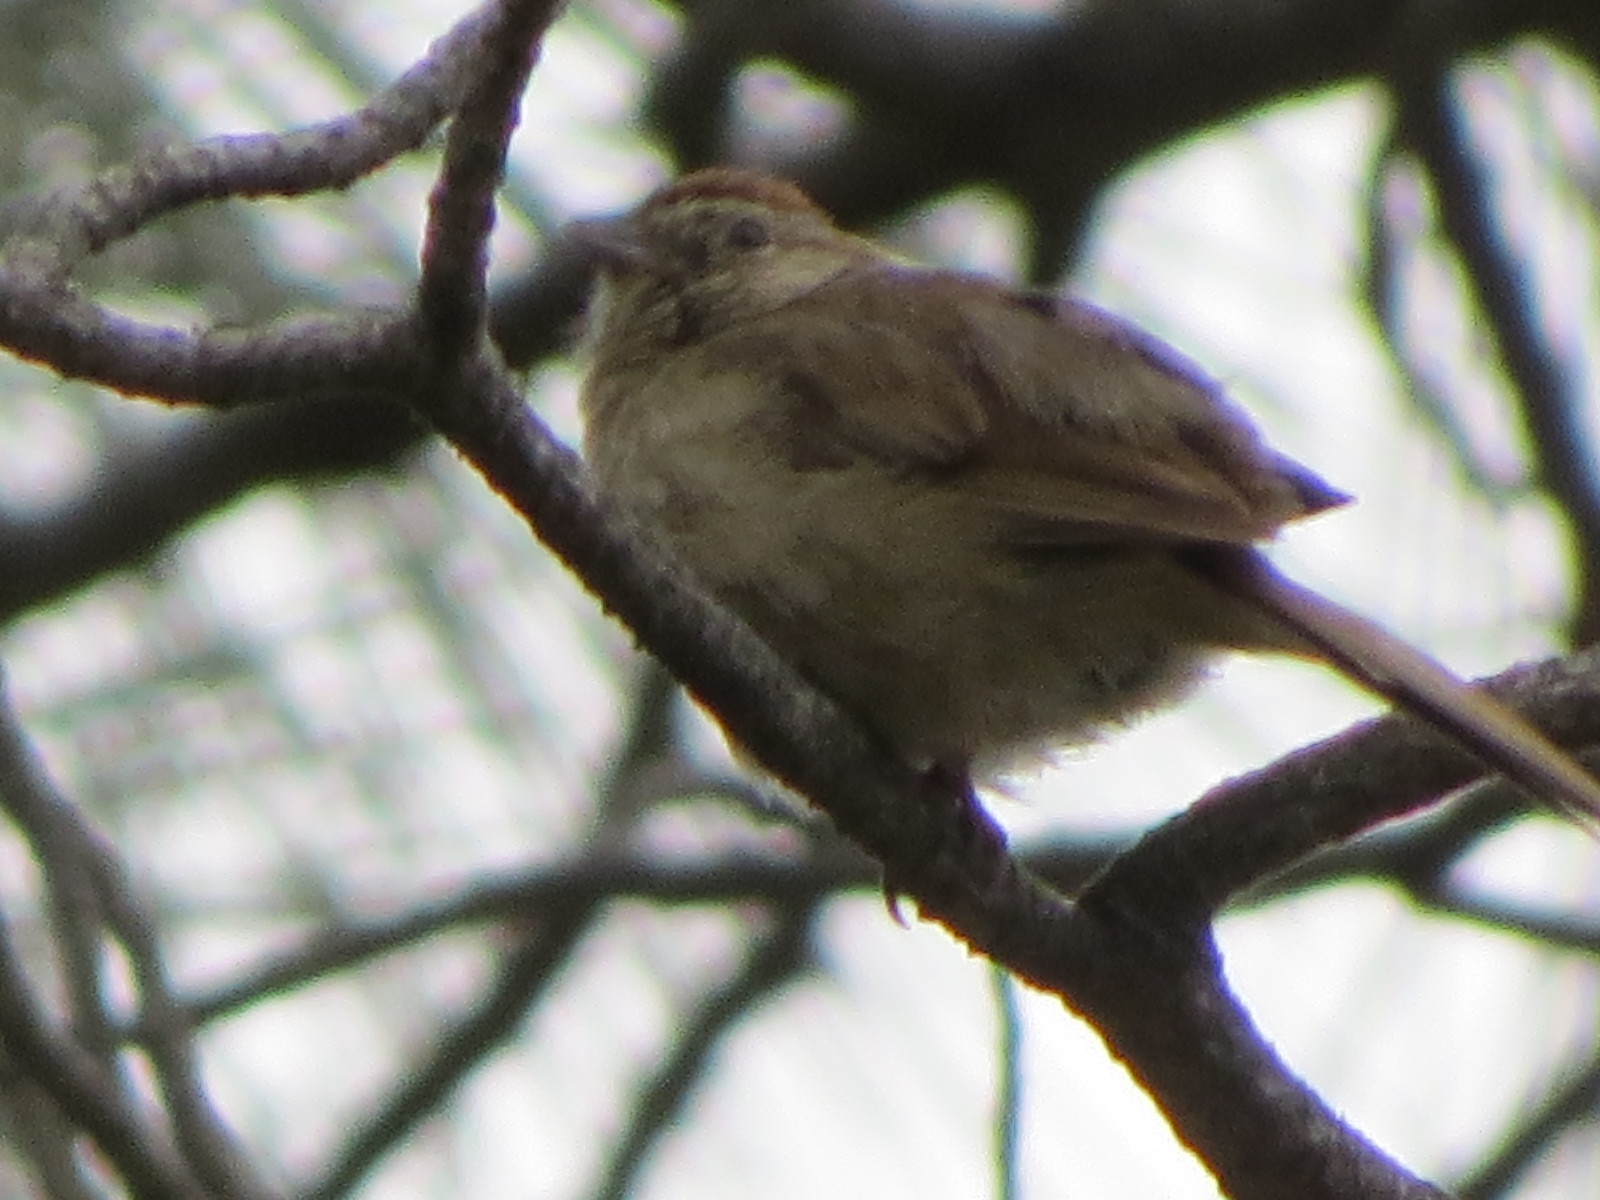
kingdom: Animalia
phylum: Chordata
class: Aves
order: Passeriformes
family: Passerellidae
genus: Aimophila
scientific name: Aimophila ruficeps
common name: Rufous-crowned sparrow
